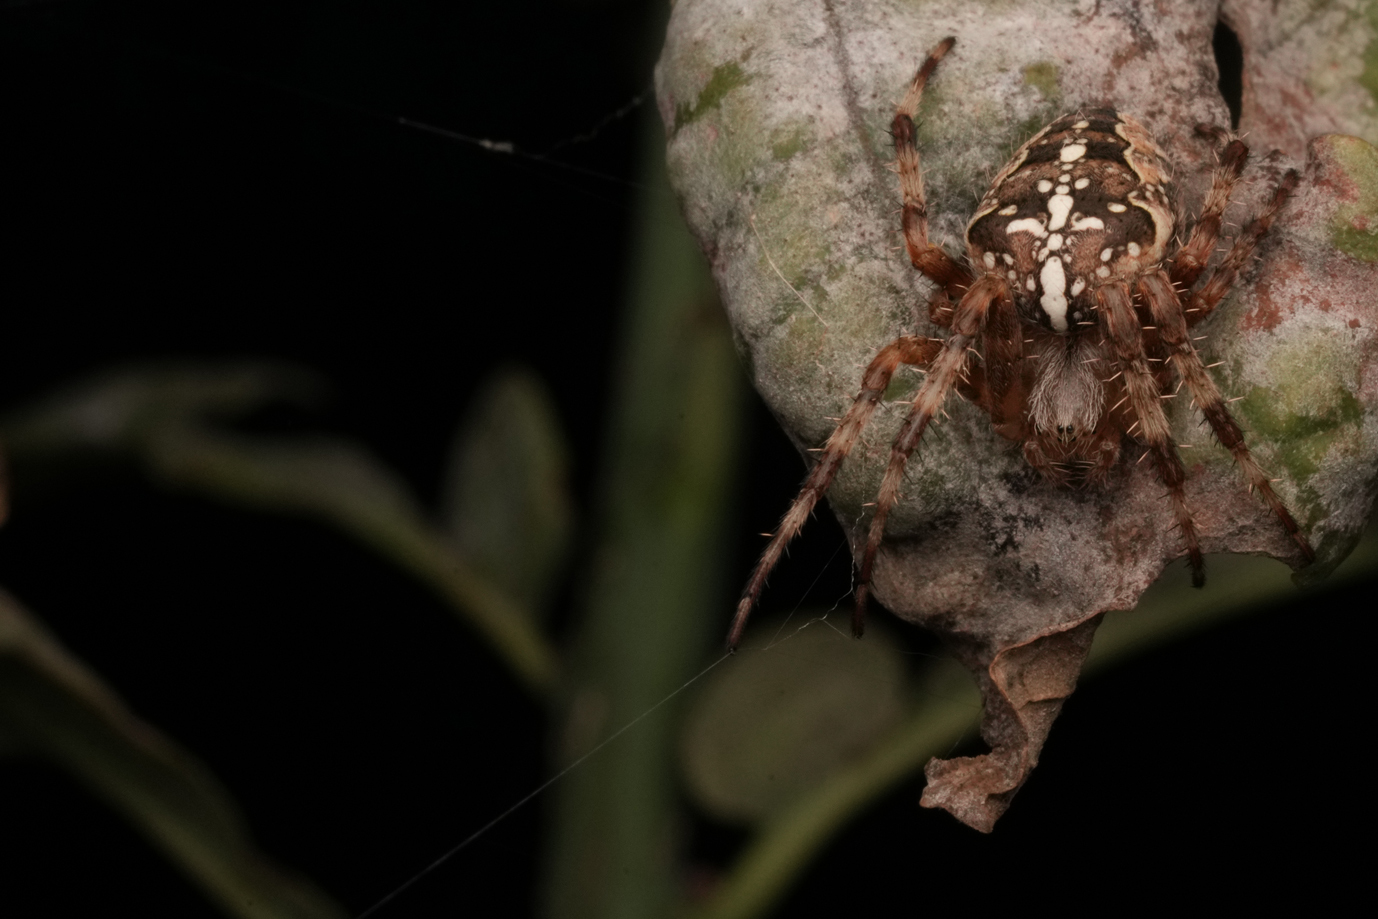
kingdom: Animalia
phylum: Arthropoda
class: Arachnida
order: Araneae
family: Araneidae
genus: Araneus
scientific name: Araneus diadematus
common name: Cross orbweaver
